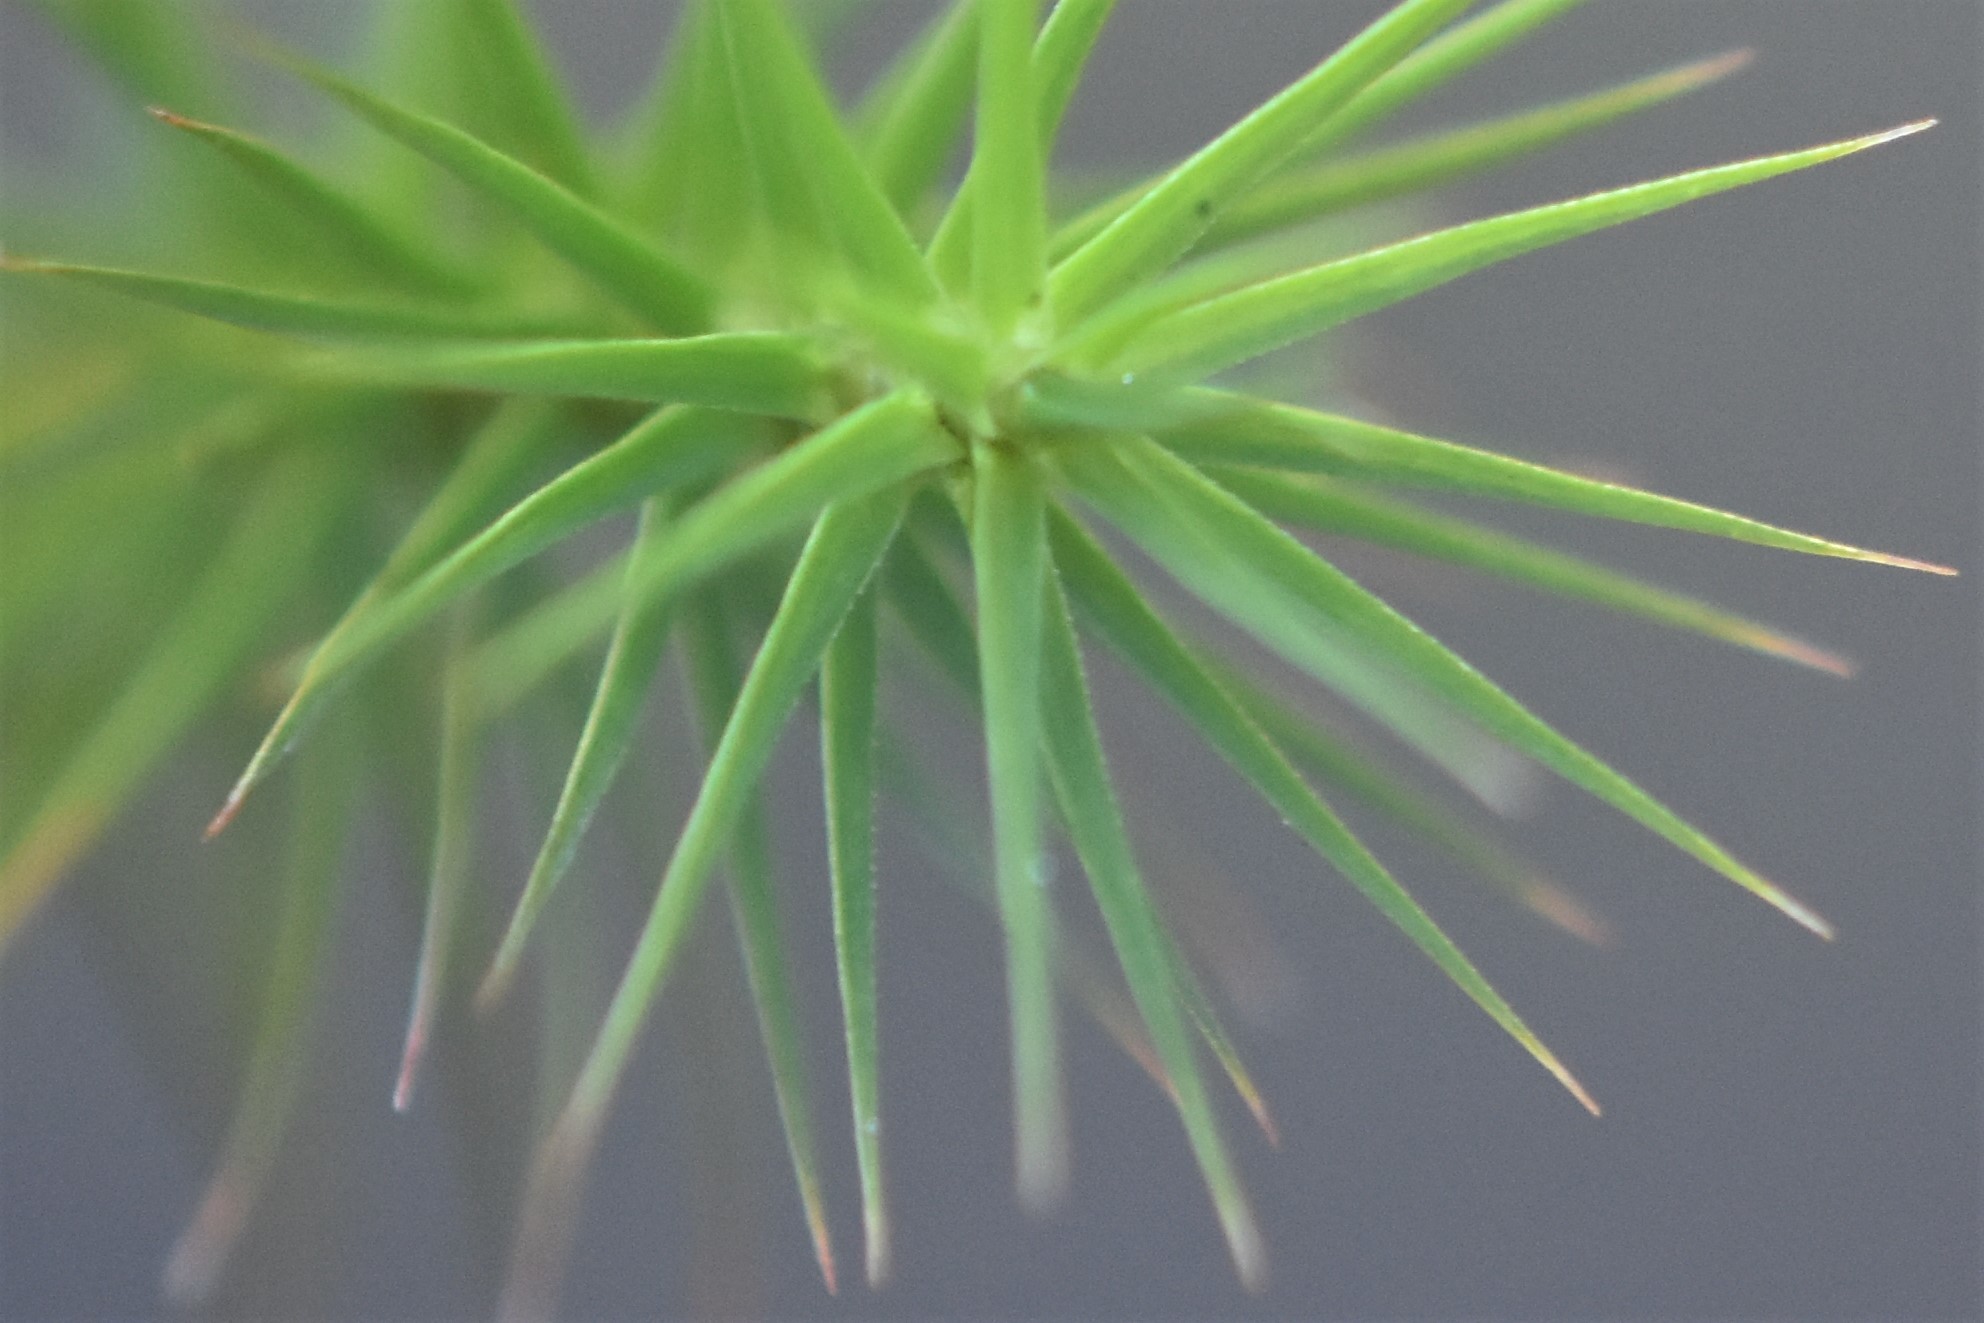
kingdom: Plantae
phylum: Bryophyta
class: Polytrichopsida
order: Polytrichales
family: Polytrichaceae
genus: Polytrichum
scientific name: Polytrichum commune
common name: Common haircap
